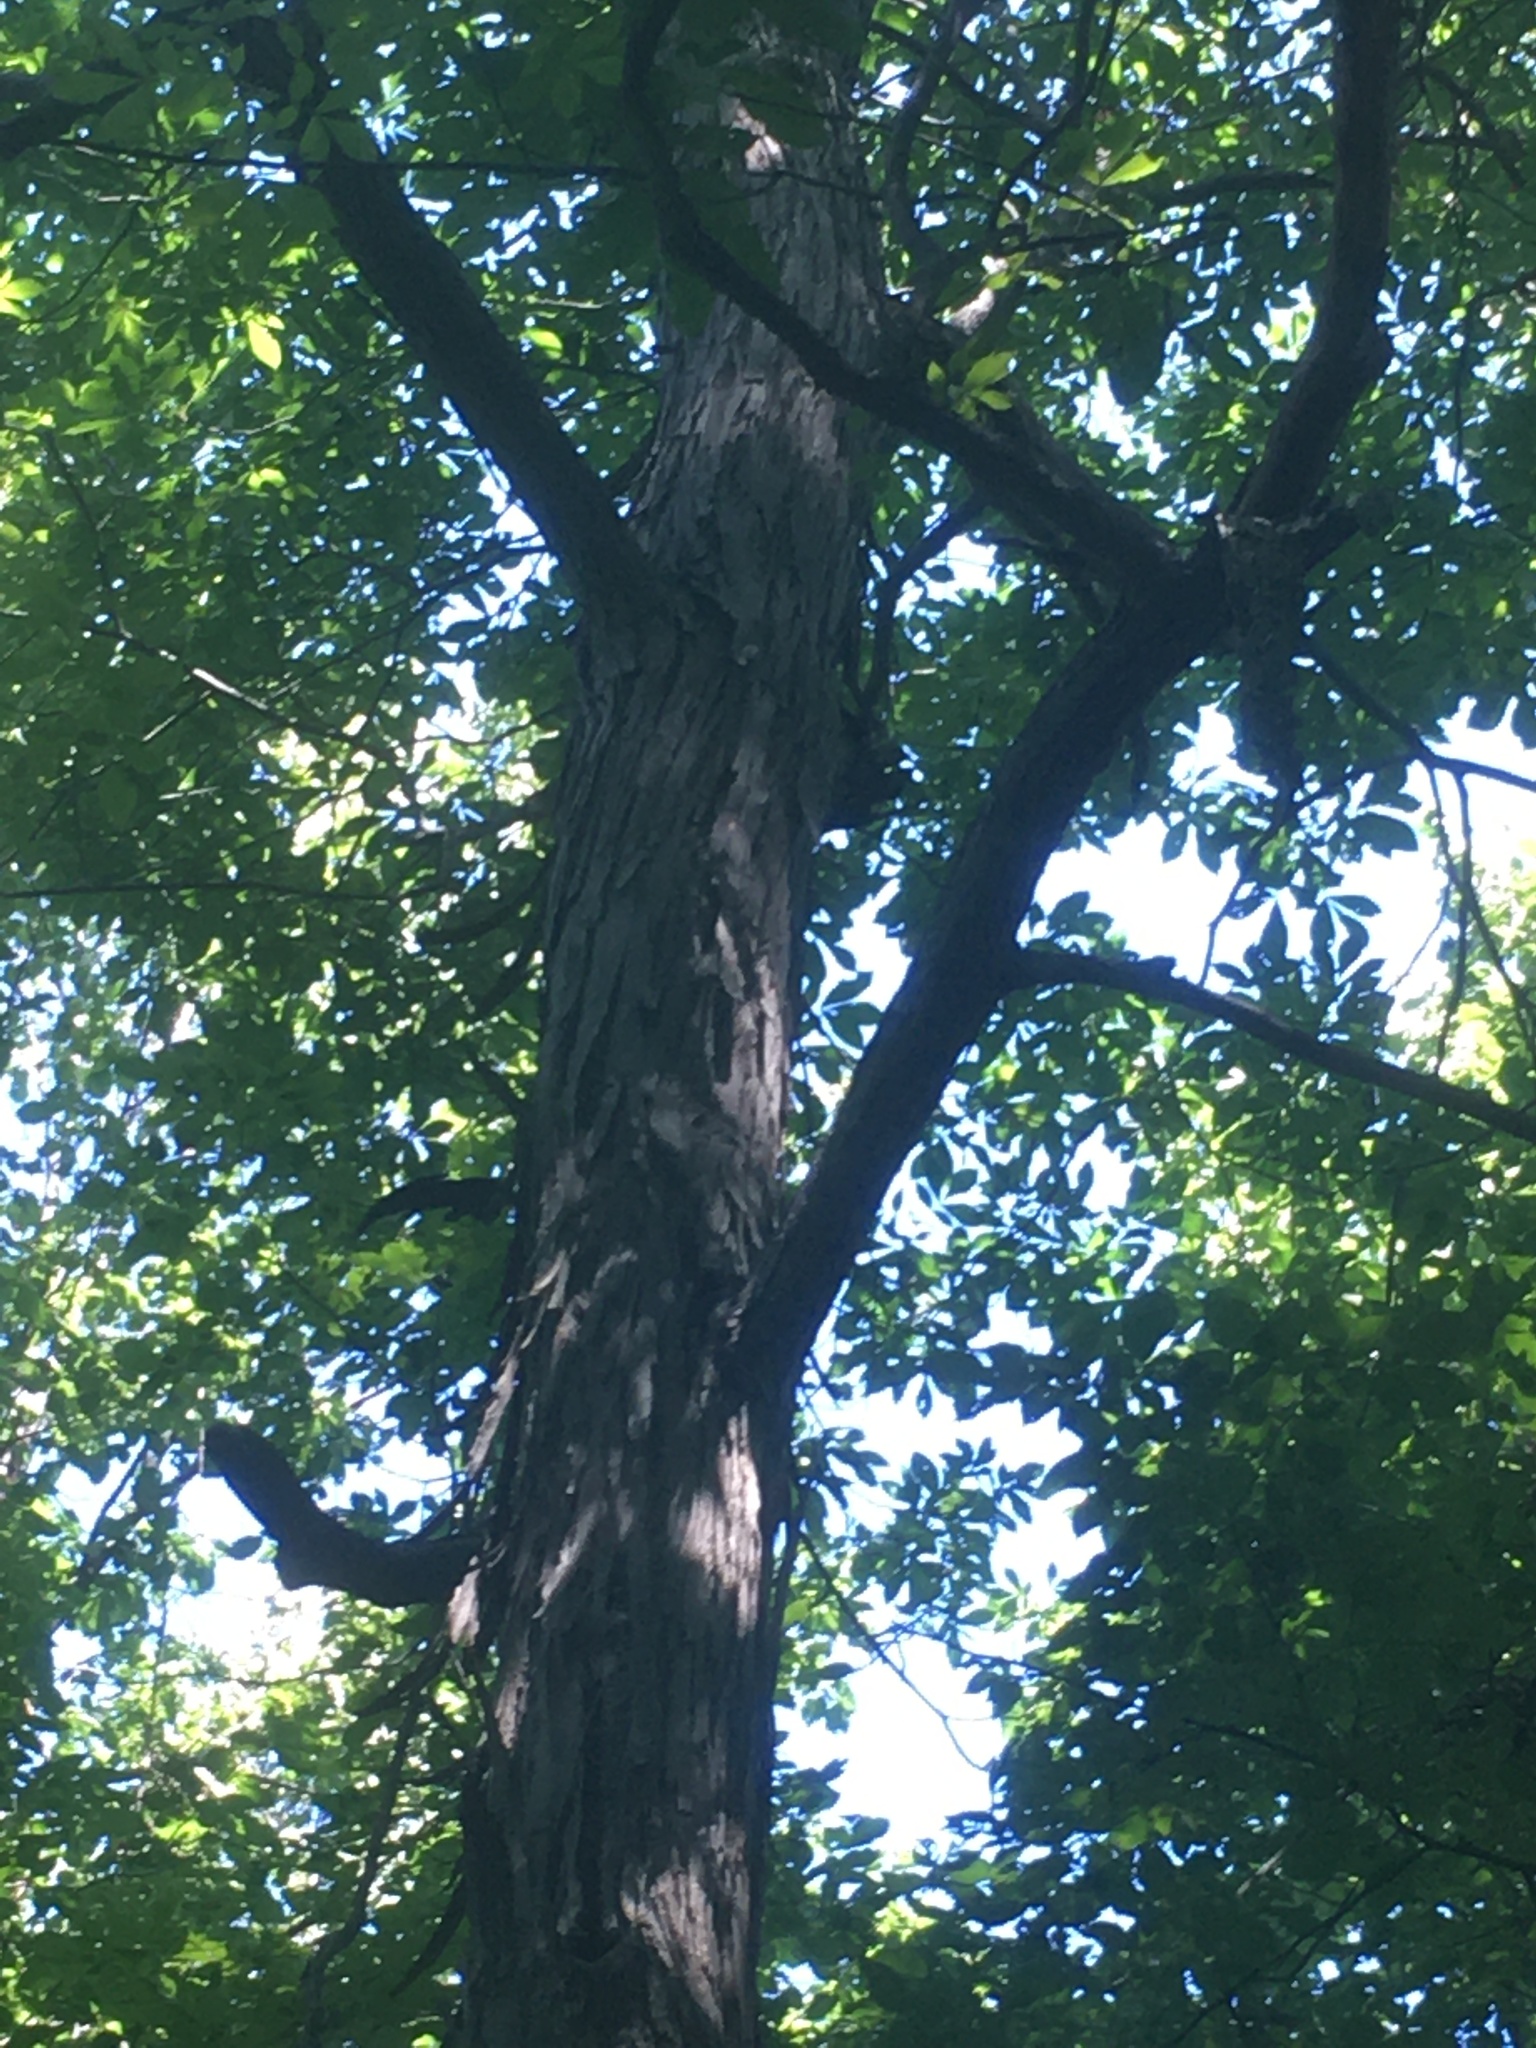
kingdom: Plantae
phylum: Tracheophyta
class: Magnoliopsida
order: Fagales
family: Juglandaceae
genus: Carya
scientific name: Carya ovata
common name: Shagbark hickory
